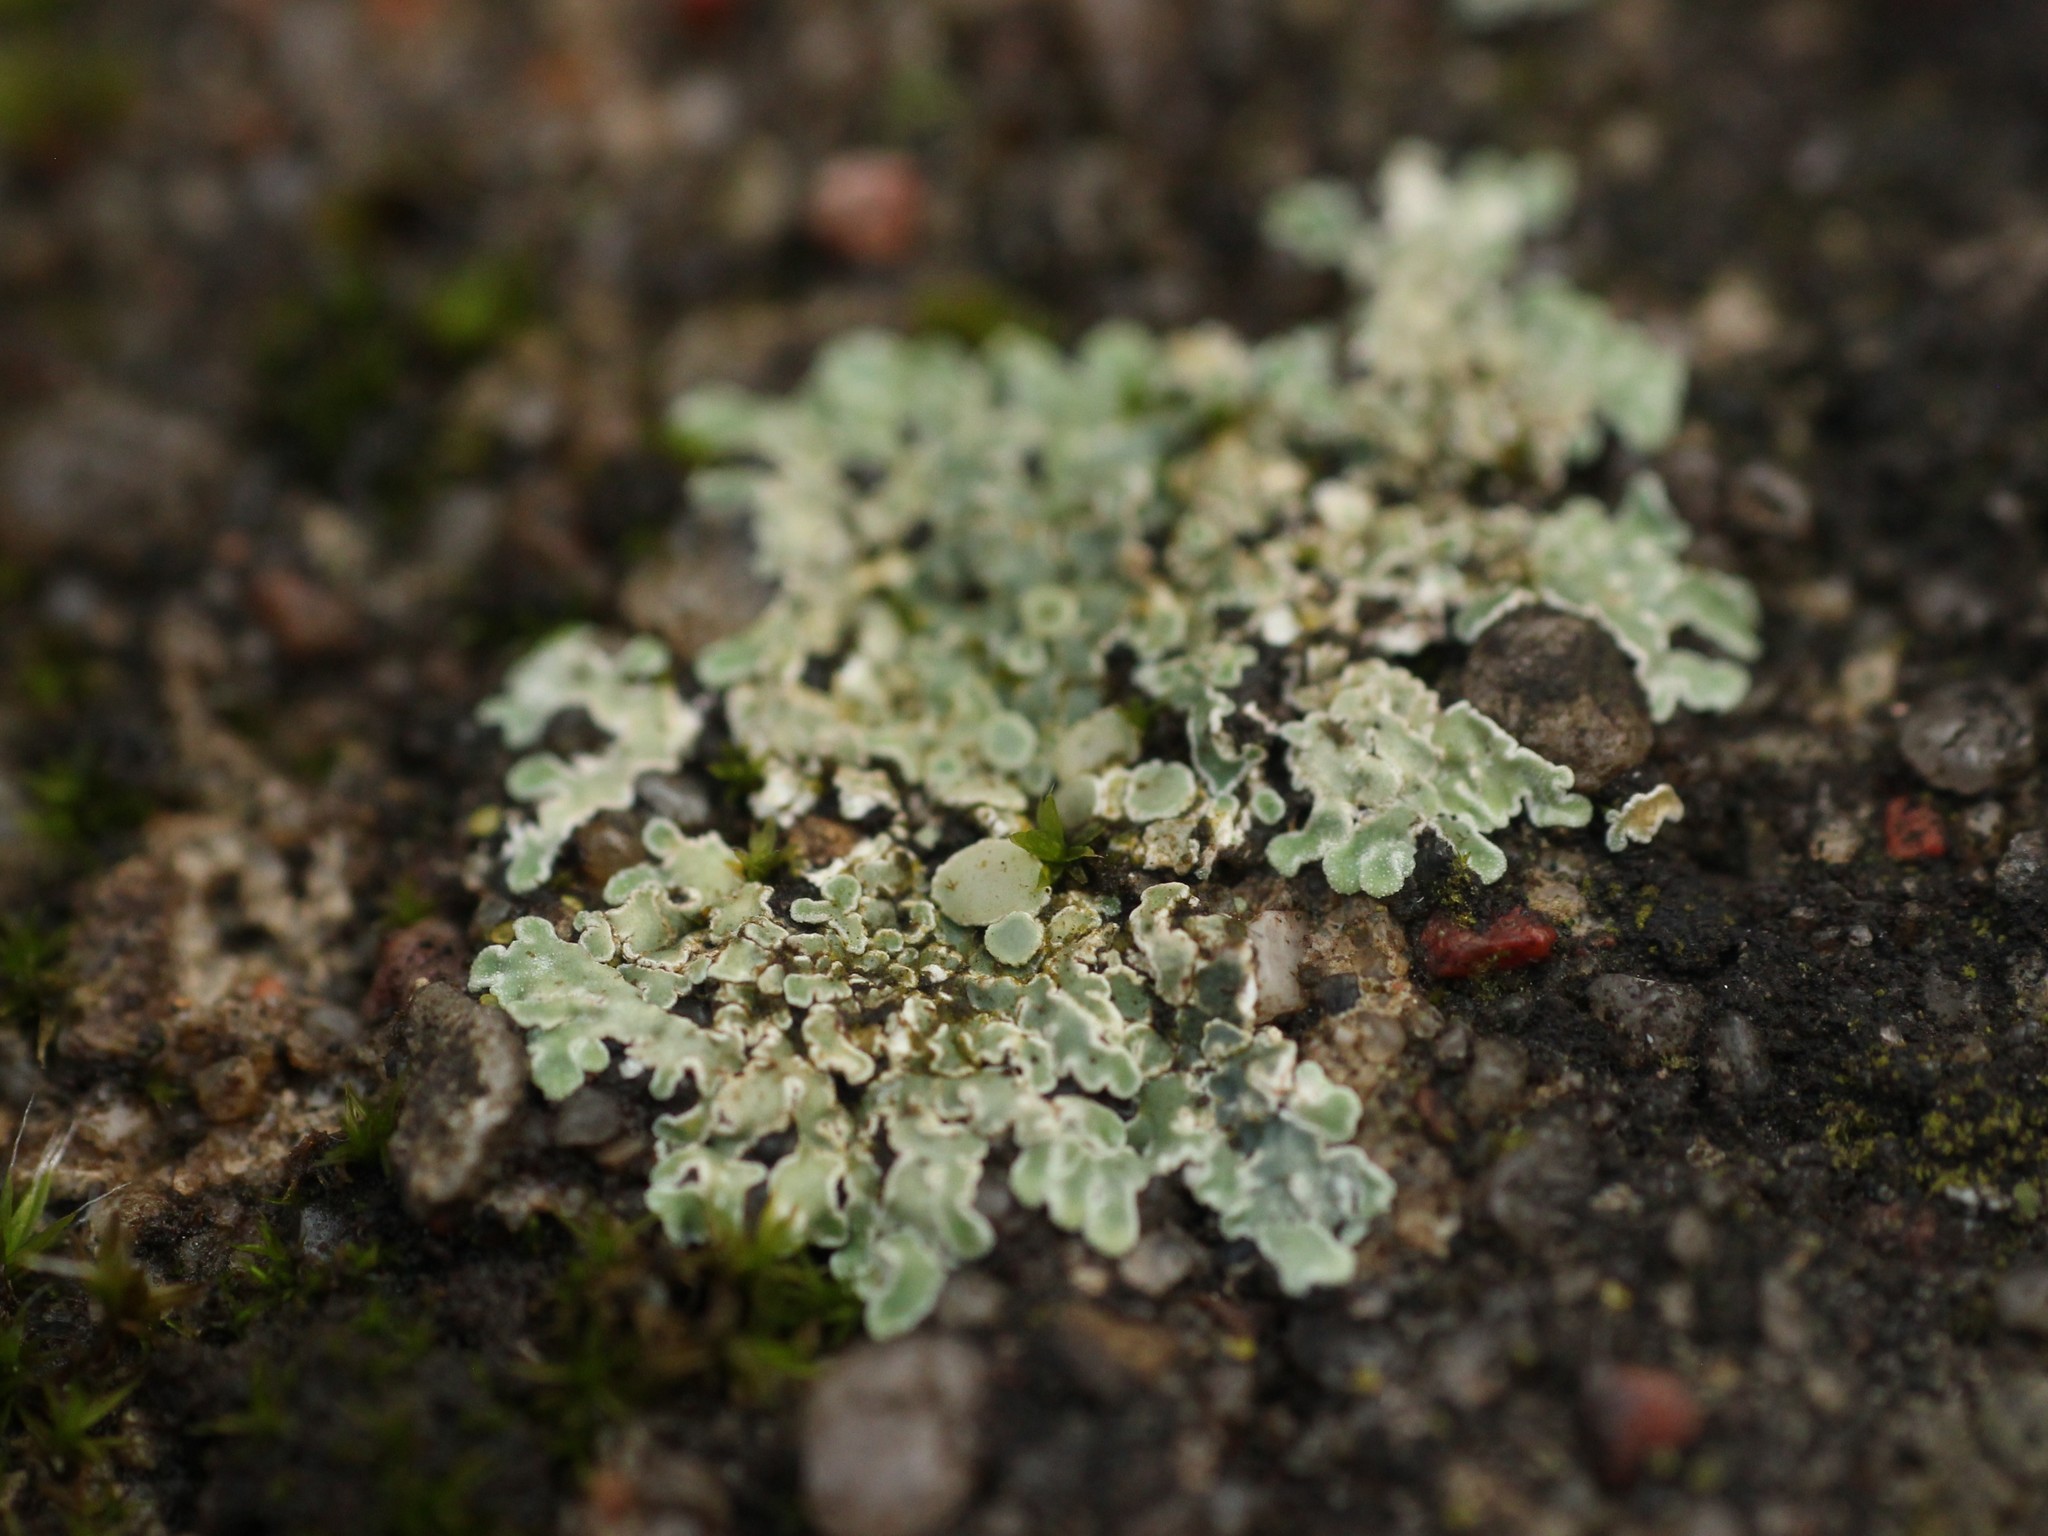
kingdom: Fungi
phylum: Ascomycota
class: Lecanoromycetes
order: Lecanorales
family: Lecanoraceae
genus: Protoparmeliopsis
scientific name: Protoparmeliopsis muralis
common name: Stonewall rim lichen
